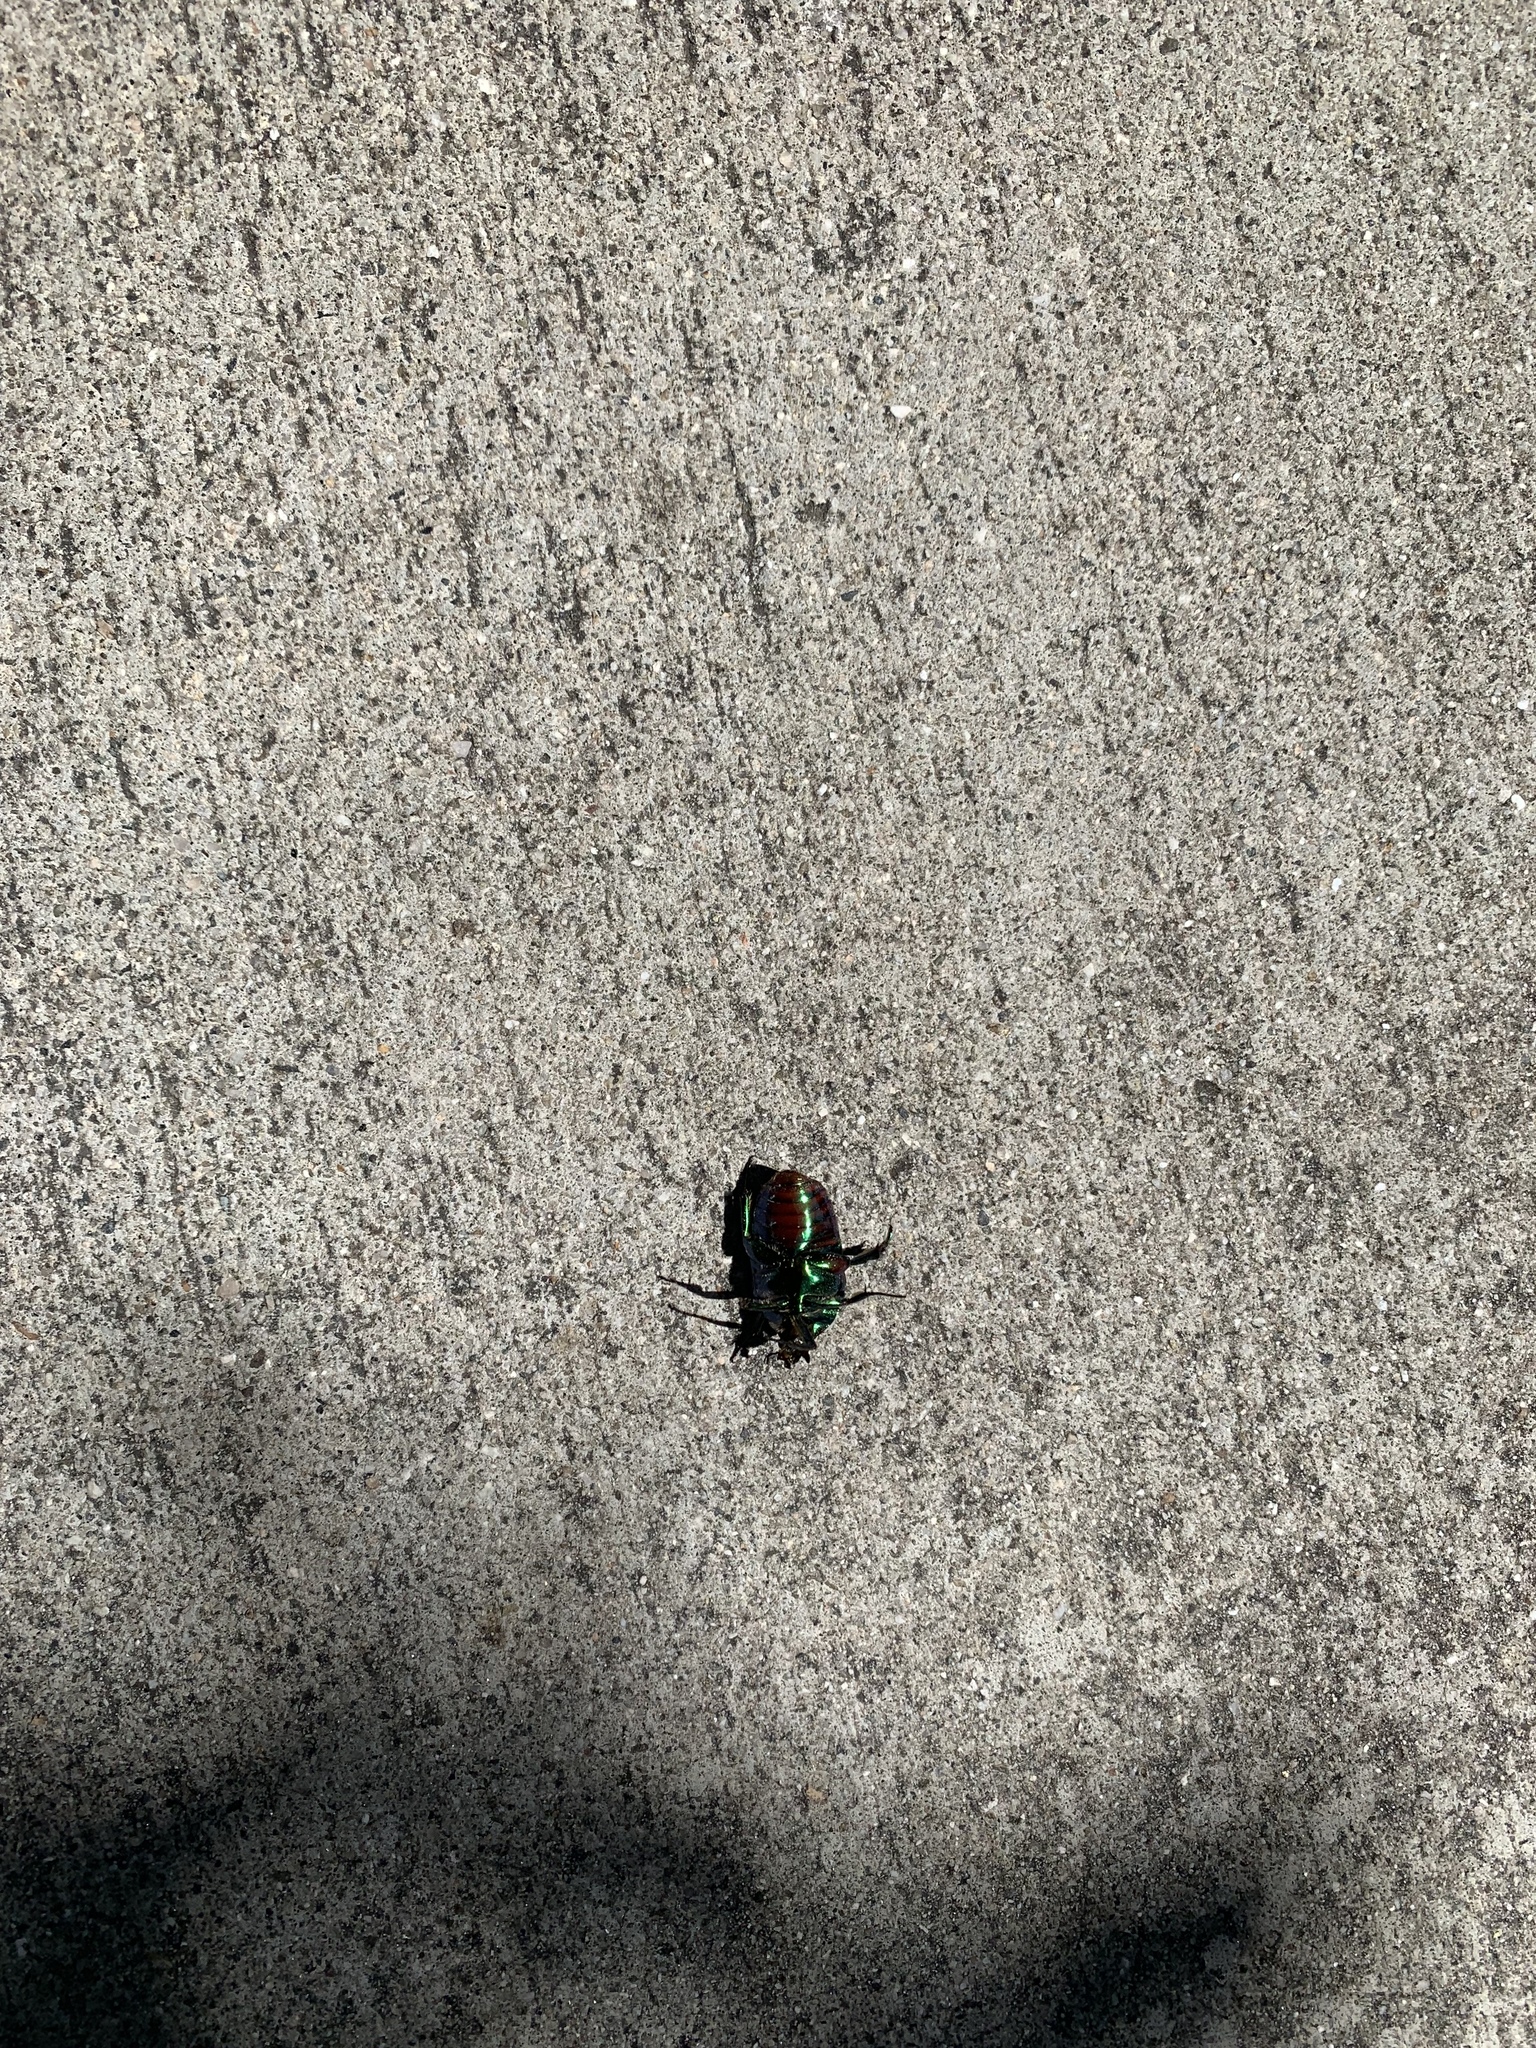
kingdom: Animalia
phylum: Arthropoda
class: Insecta
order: Coleoptera
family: Scarabaeidae
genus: Cotinis
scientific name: Cotinis mutabilis
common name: Figeater beetle
